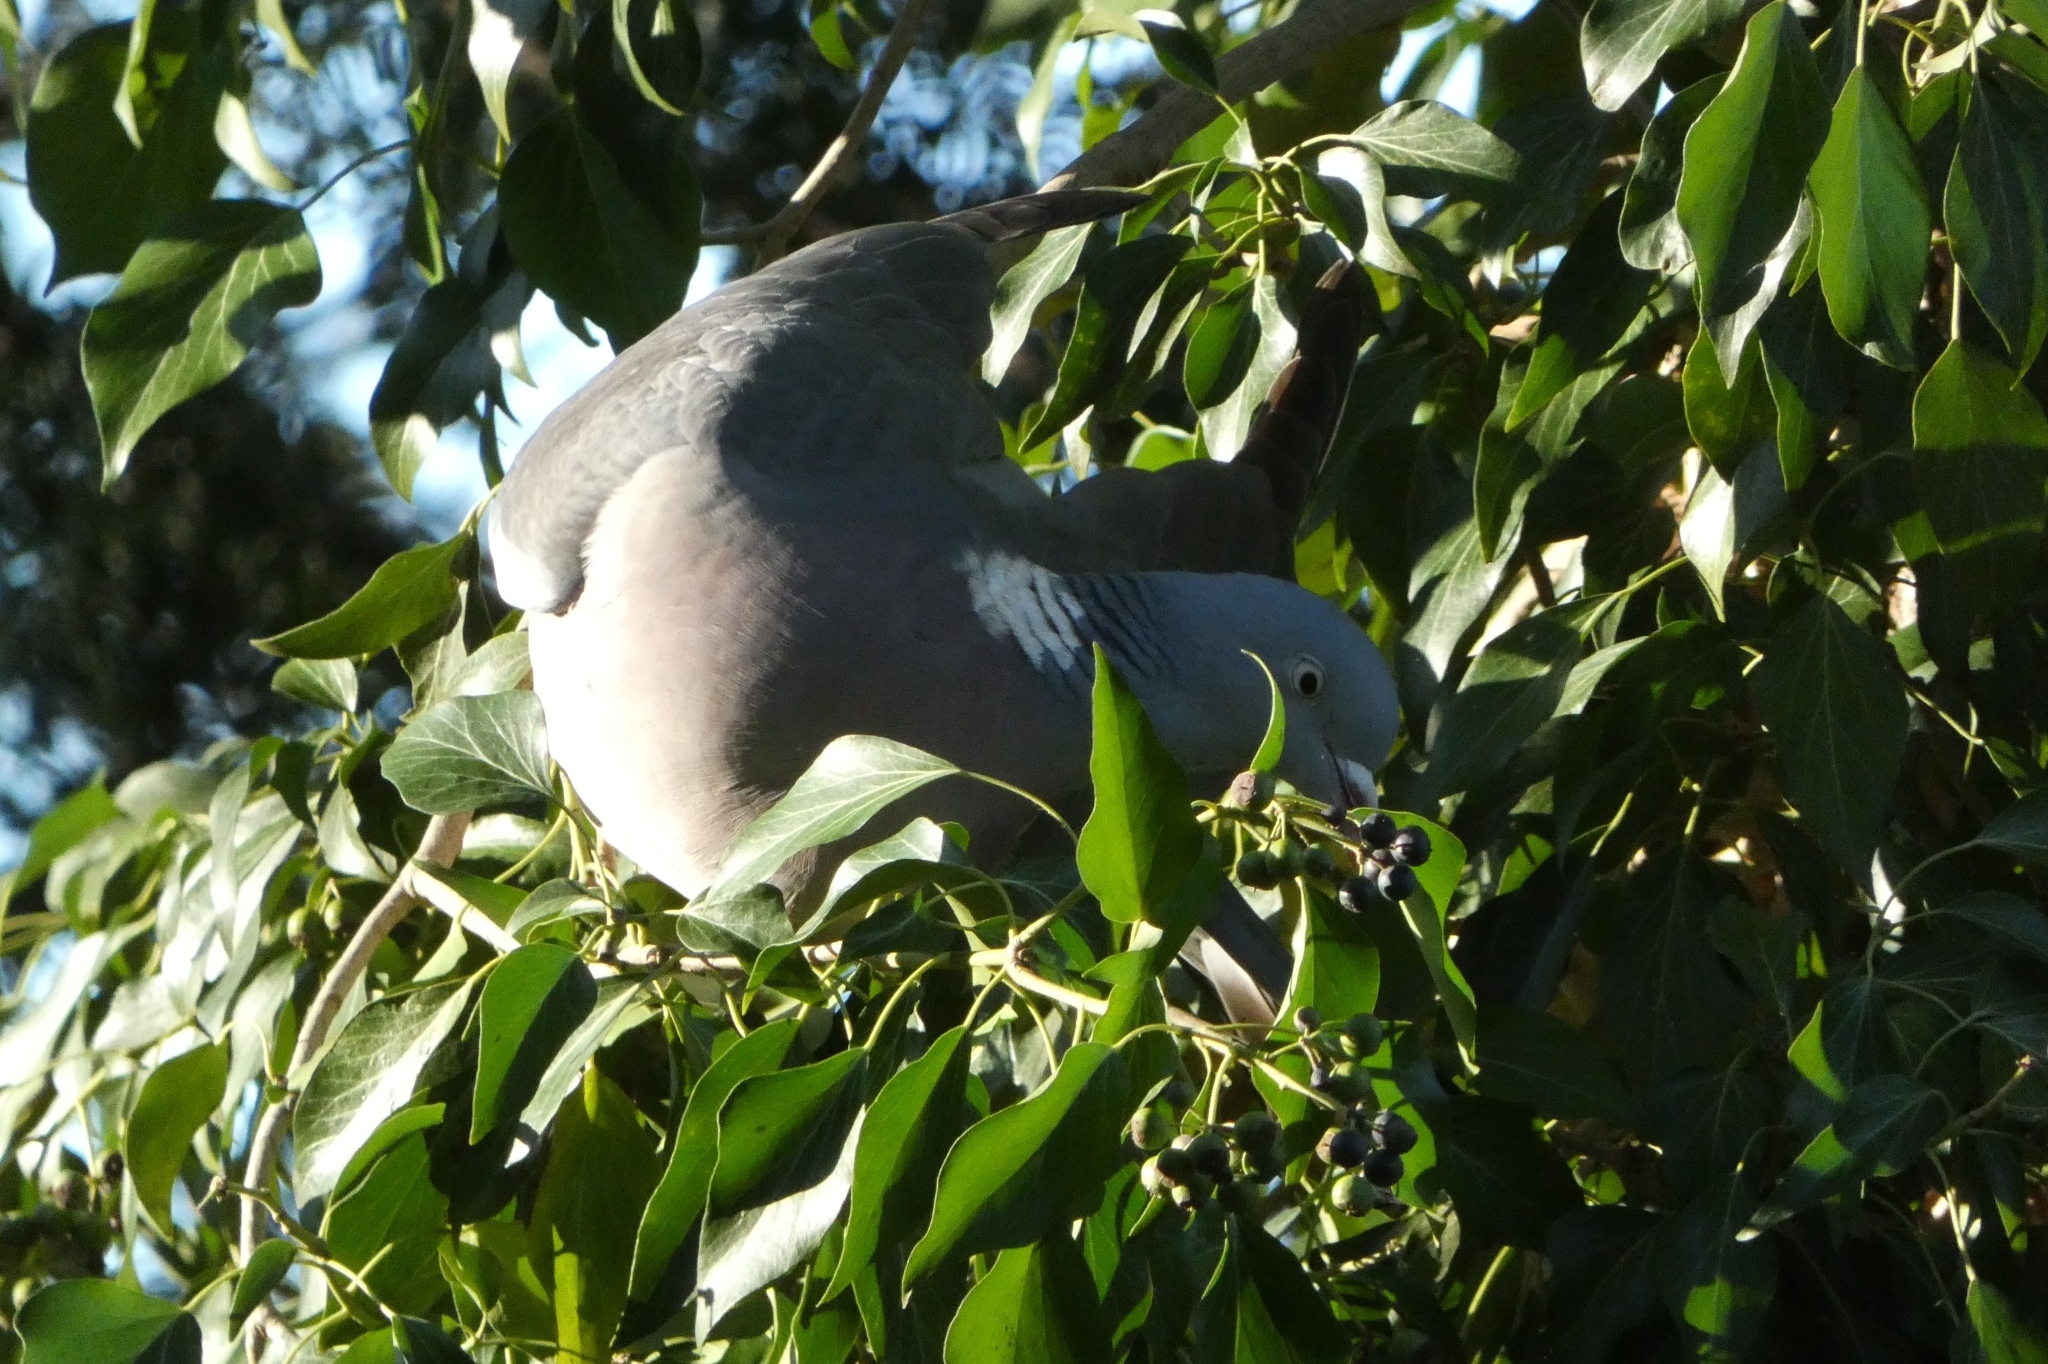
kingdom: Animalia
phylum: Chordata
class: Aves
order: Columbiformes
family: Columbidae
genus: Columba
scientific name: Columba palumbus
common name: Common wood pigeon
